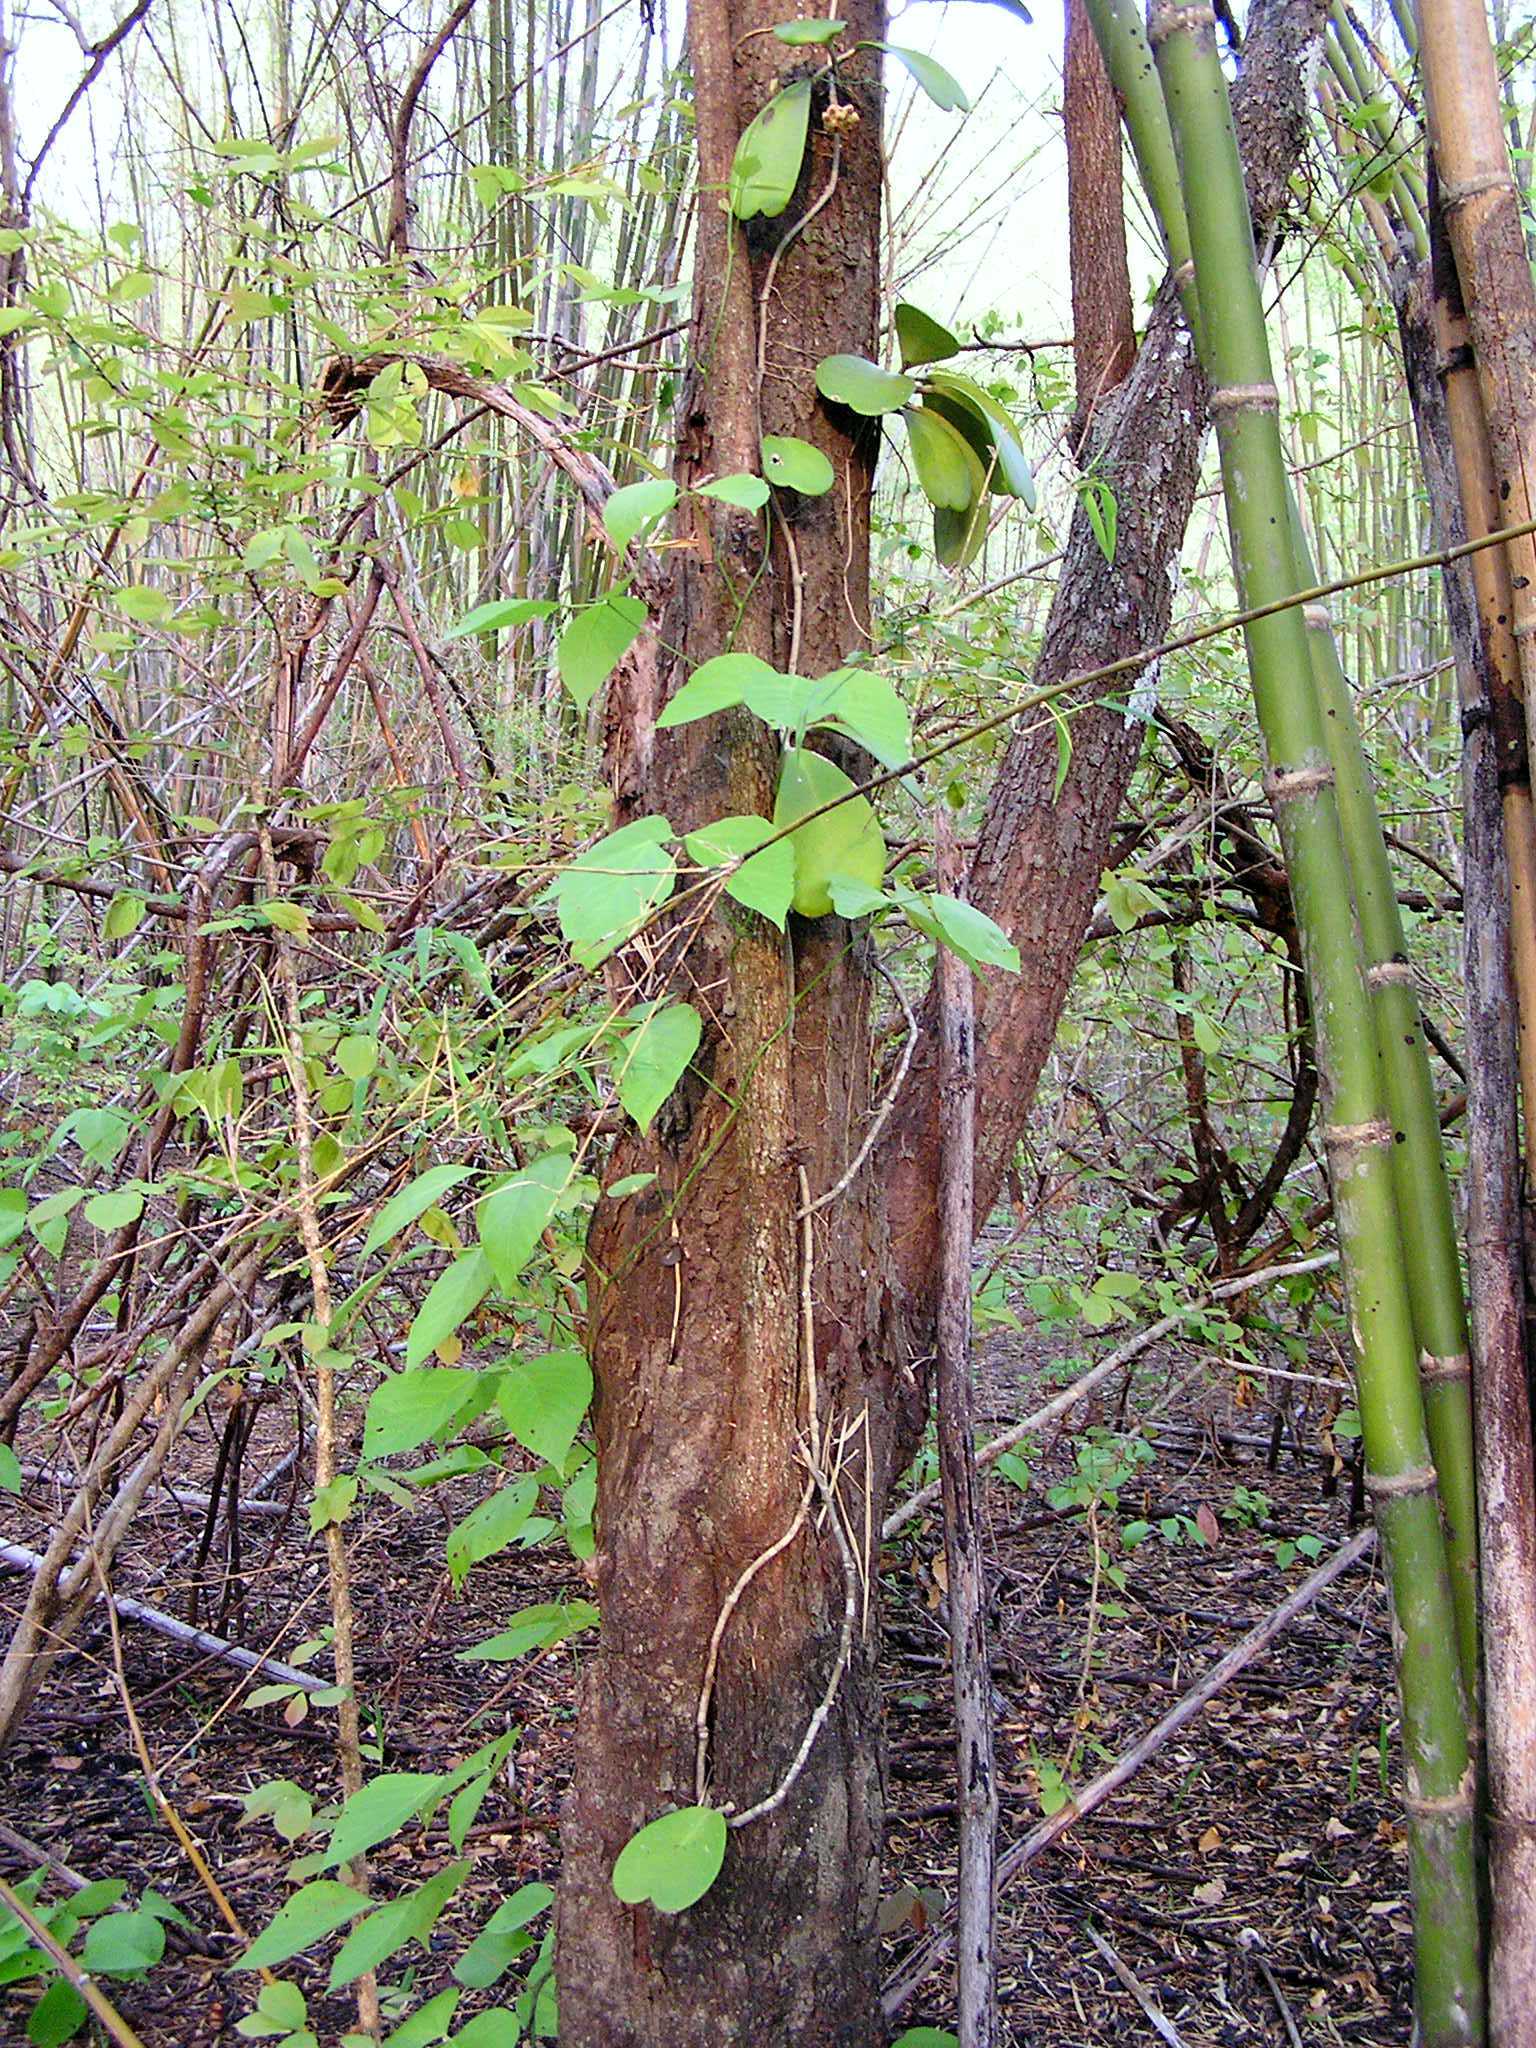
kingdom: Plantae
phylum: Tracheophyta
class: Magnoliopsida
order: Gentianales
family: Apocynaceae
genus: Hoya
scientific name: Hoya kerrii
